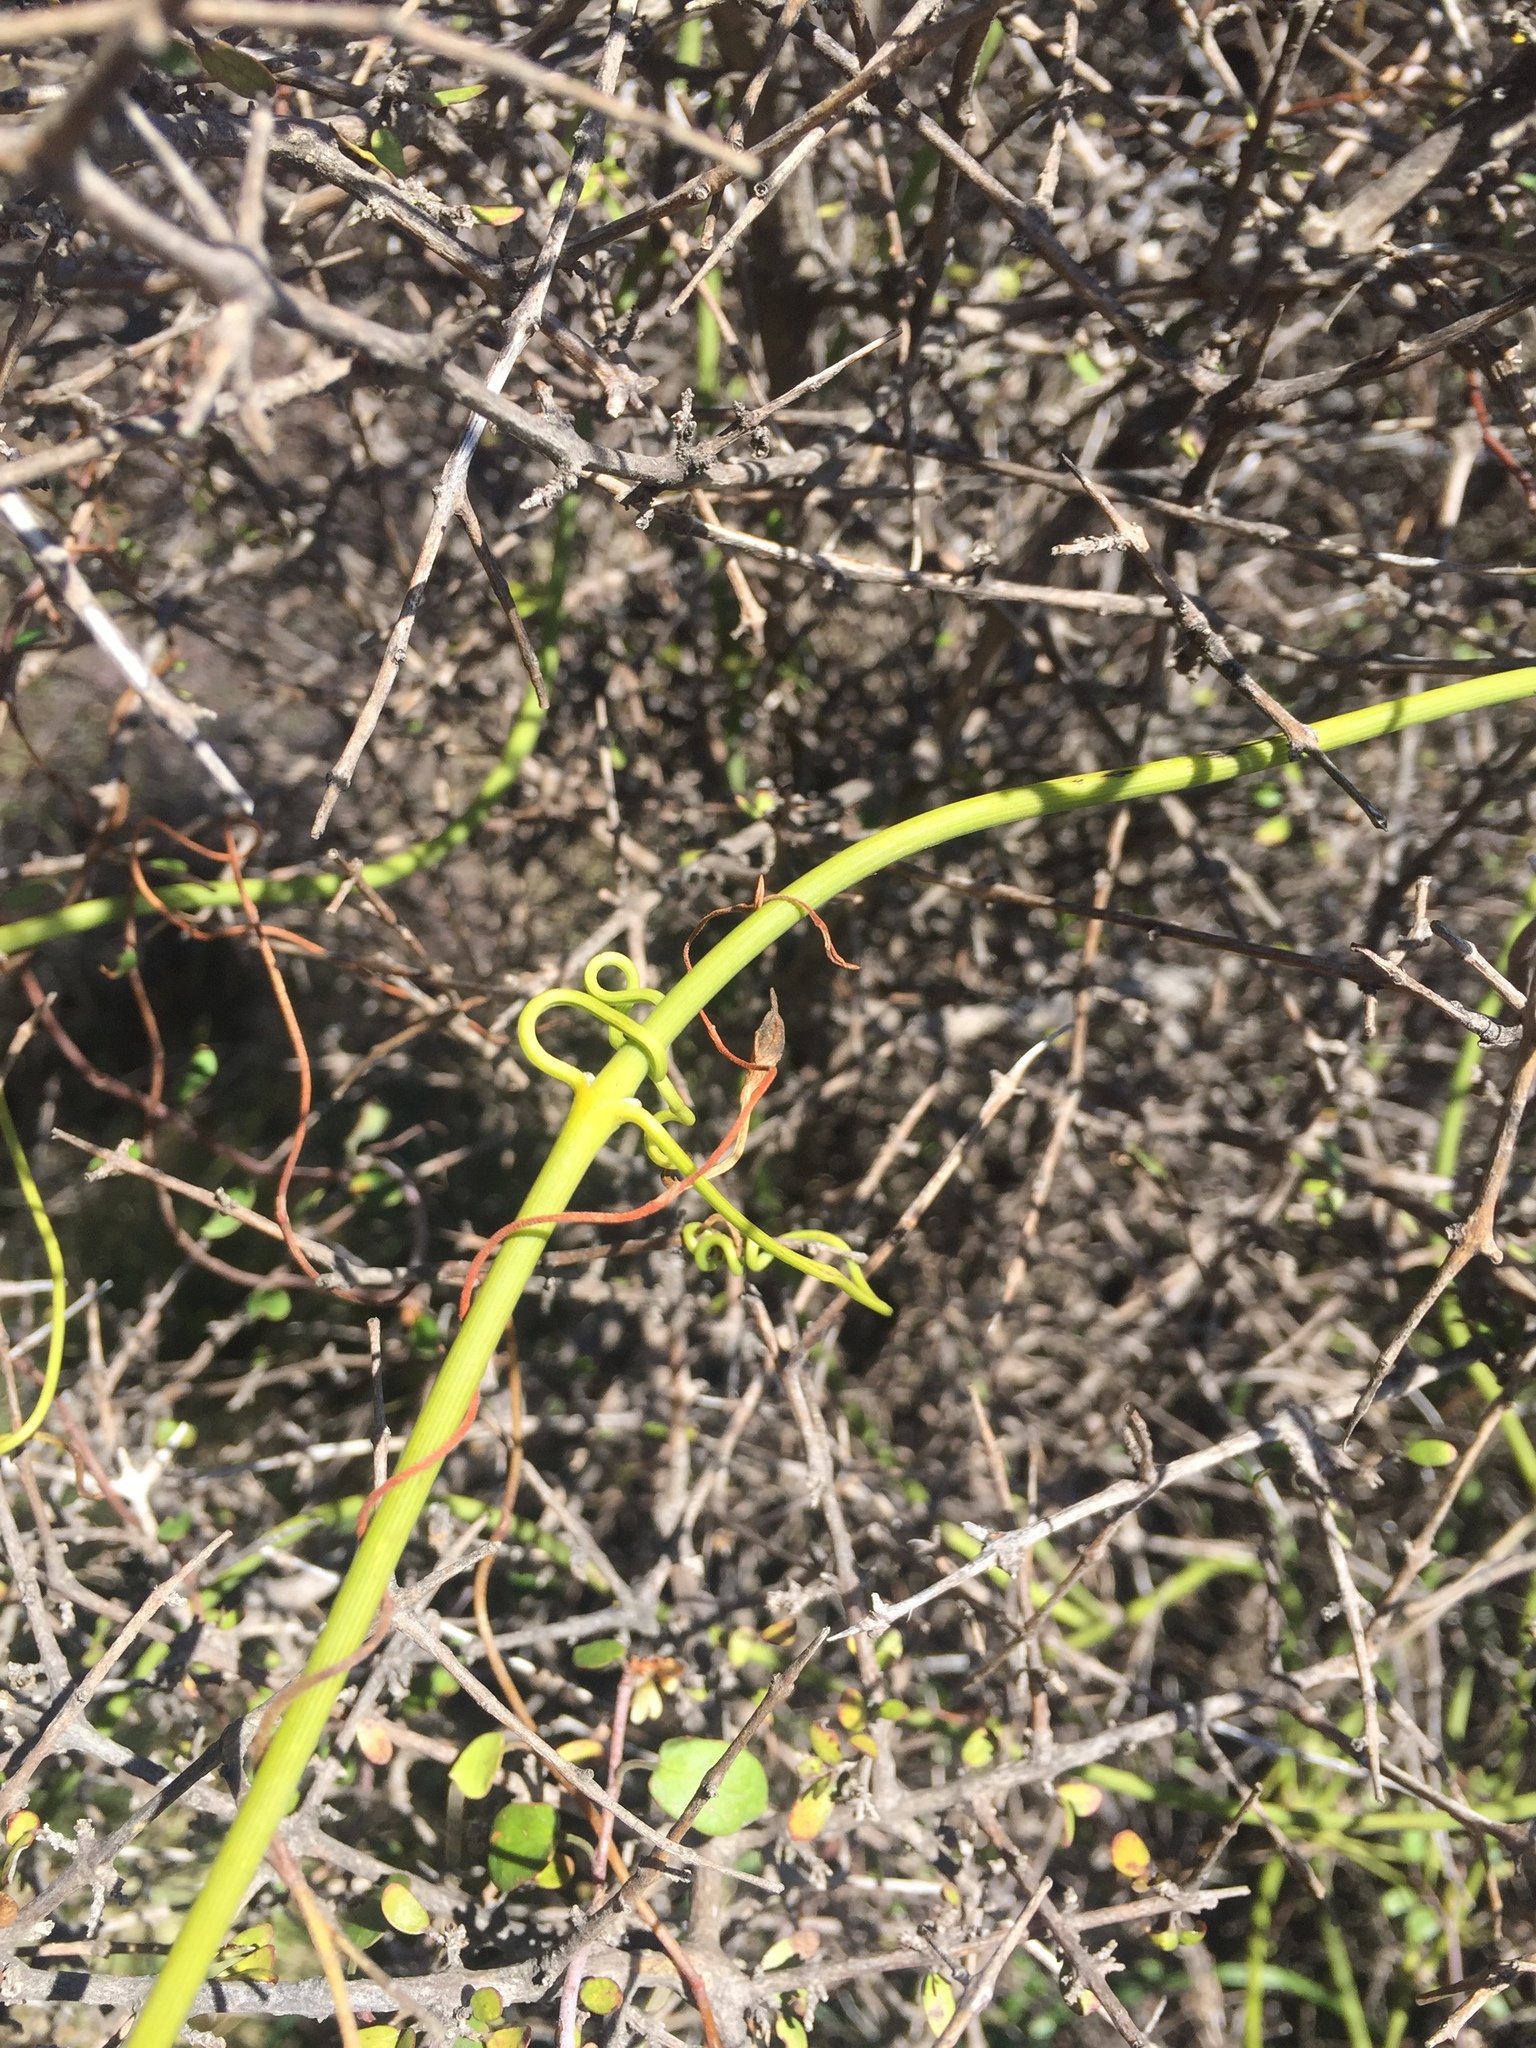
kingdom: Plantae
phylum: Tracheophyta
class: Magnoliopsida
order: Ranunculales
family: Ranunculaceae
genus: Clematis
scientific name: Clematis afoliata
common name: Rush-stem clematis
